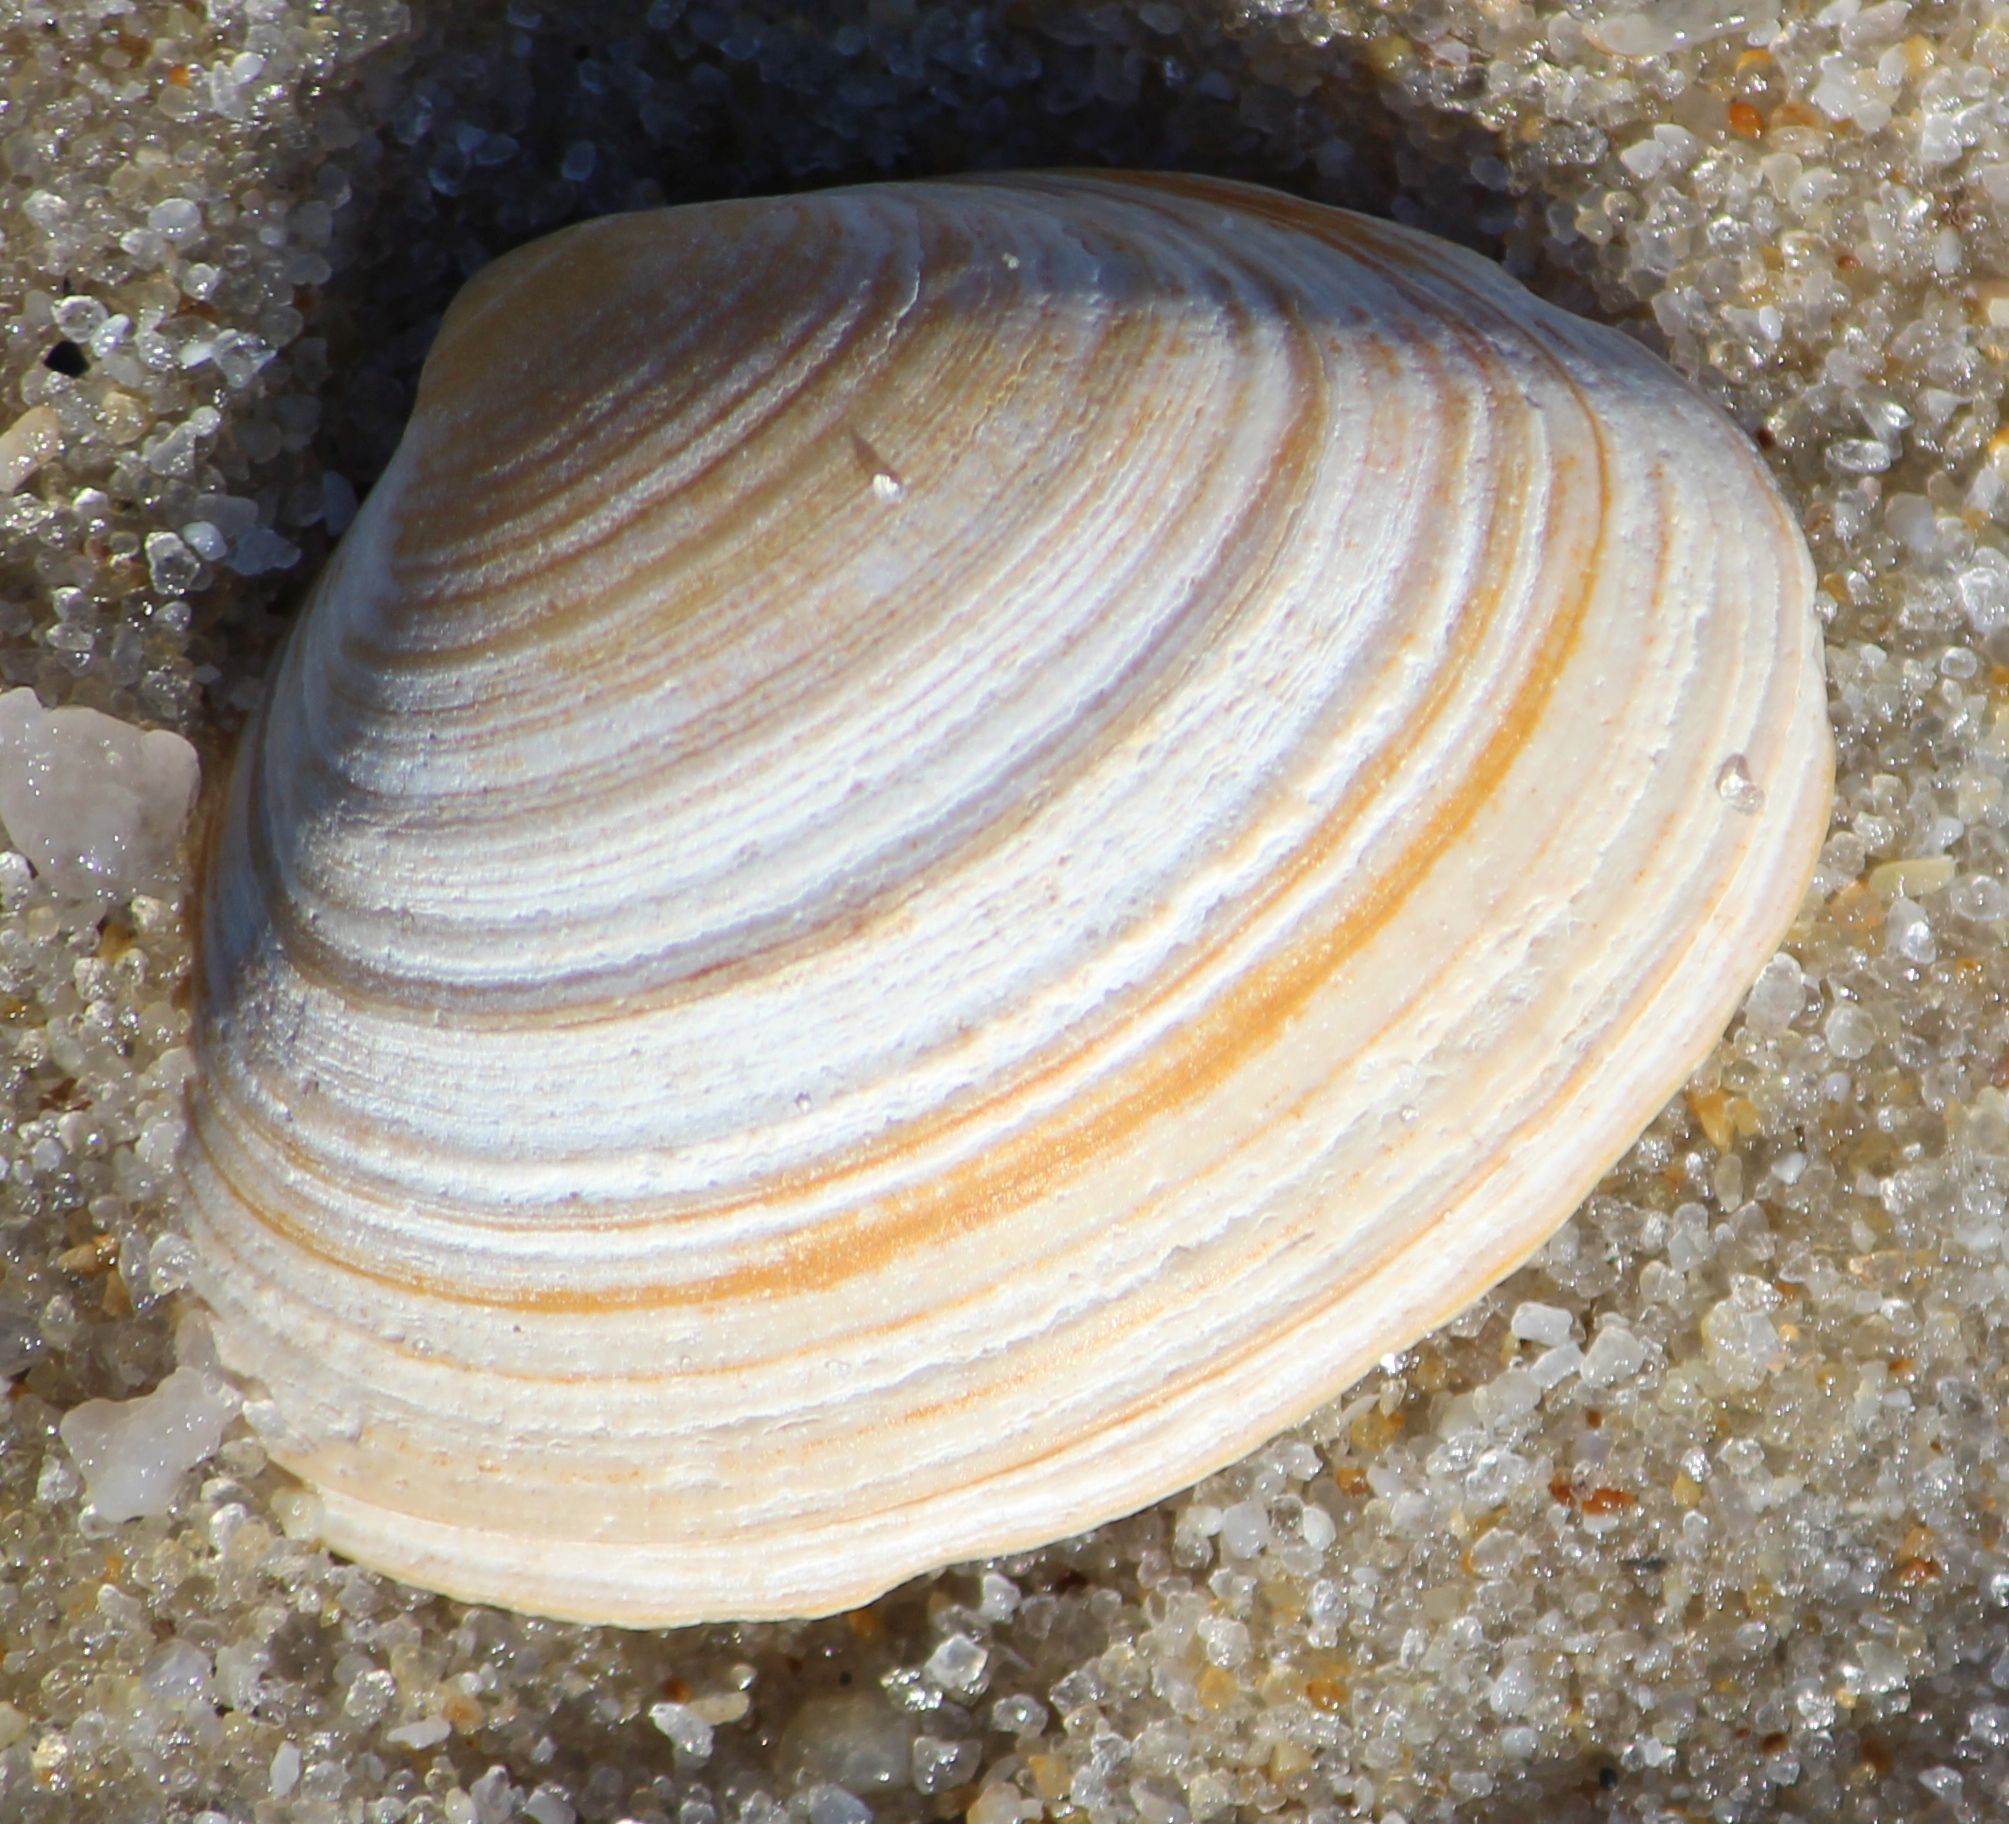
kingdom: Animalia
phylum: Mollusca
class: Bivalvia
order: Venerida
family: Mactridae
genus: Spisula
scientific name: Spisula solida
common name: Thick trough shell
